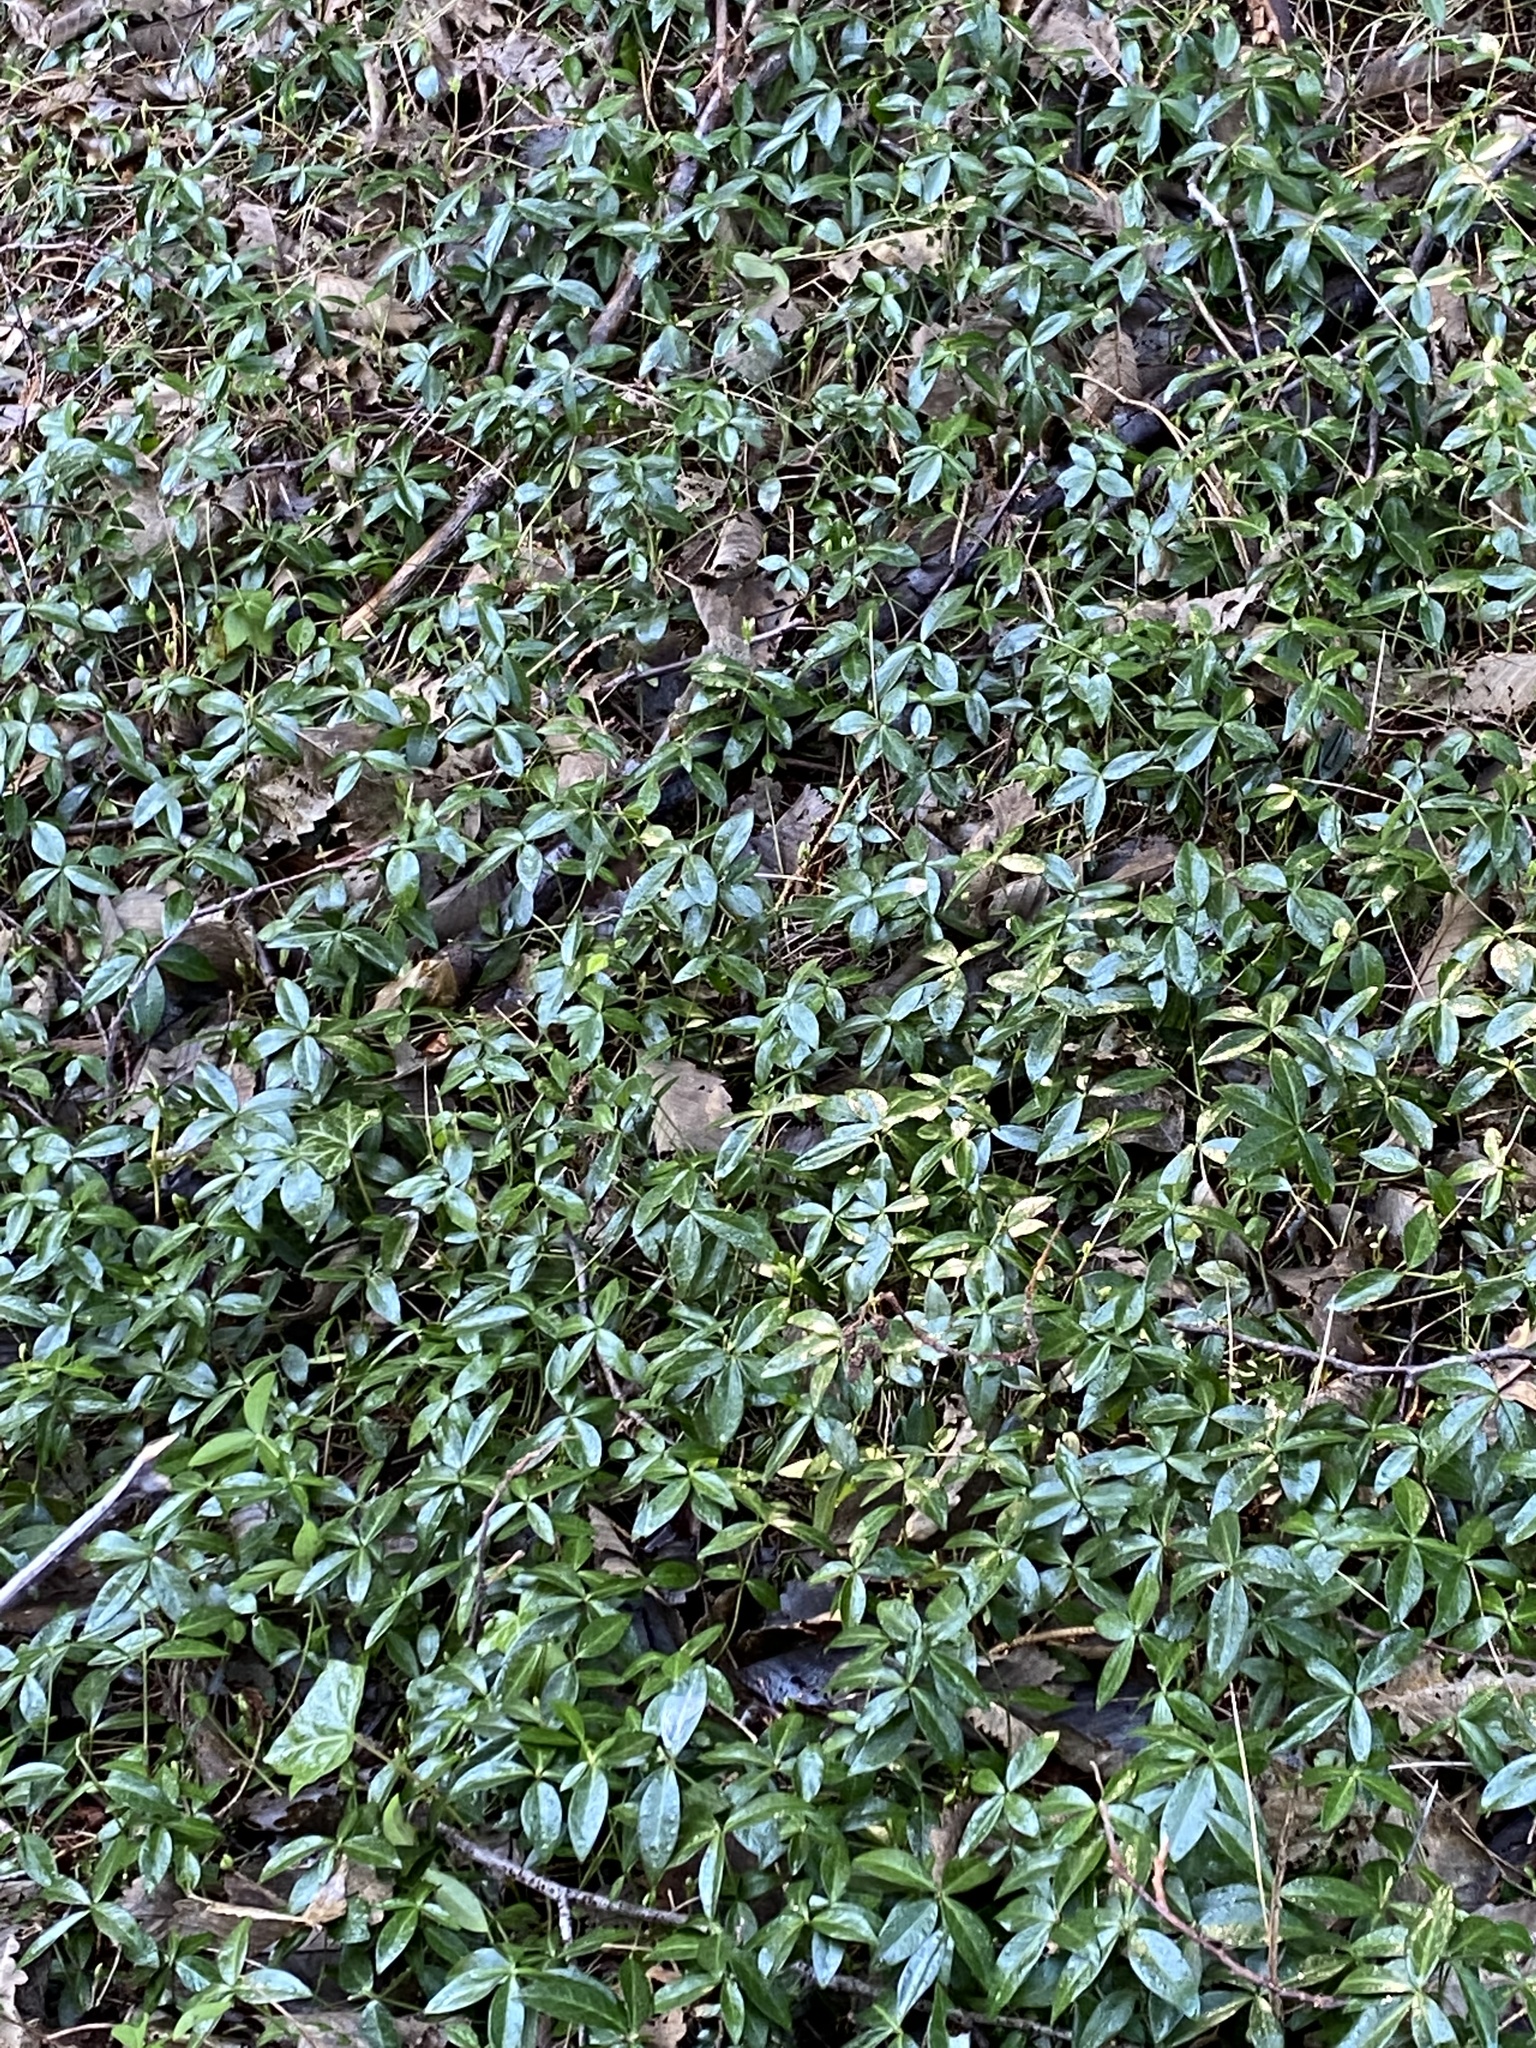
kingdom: Plantae
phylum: Tracheophyta
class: Magnoliopsida
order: Gentianales
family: Apocynaceae
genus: Vinca
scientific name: Vinca minor
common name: Lesser periwinkle
